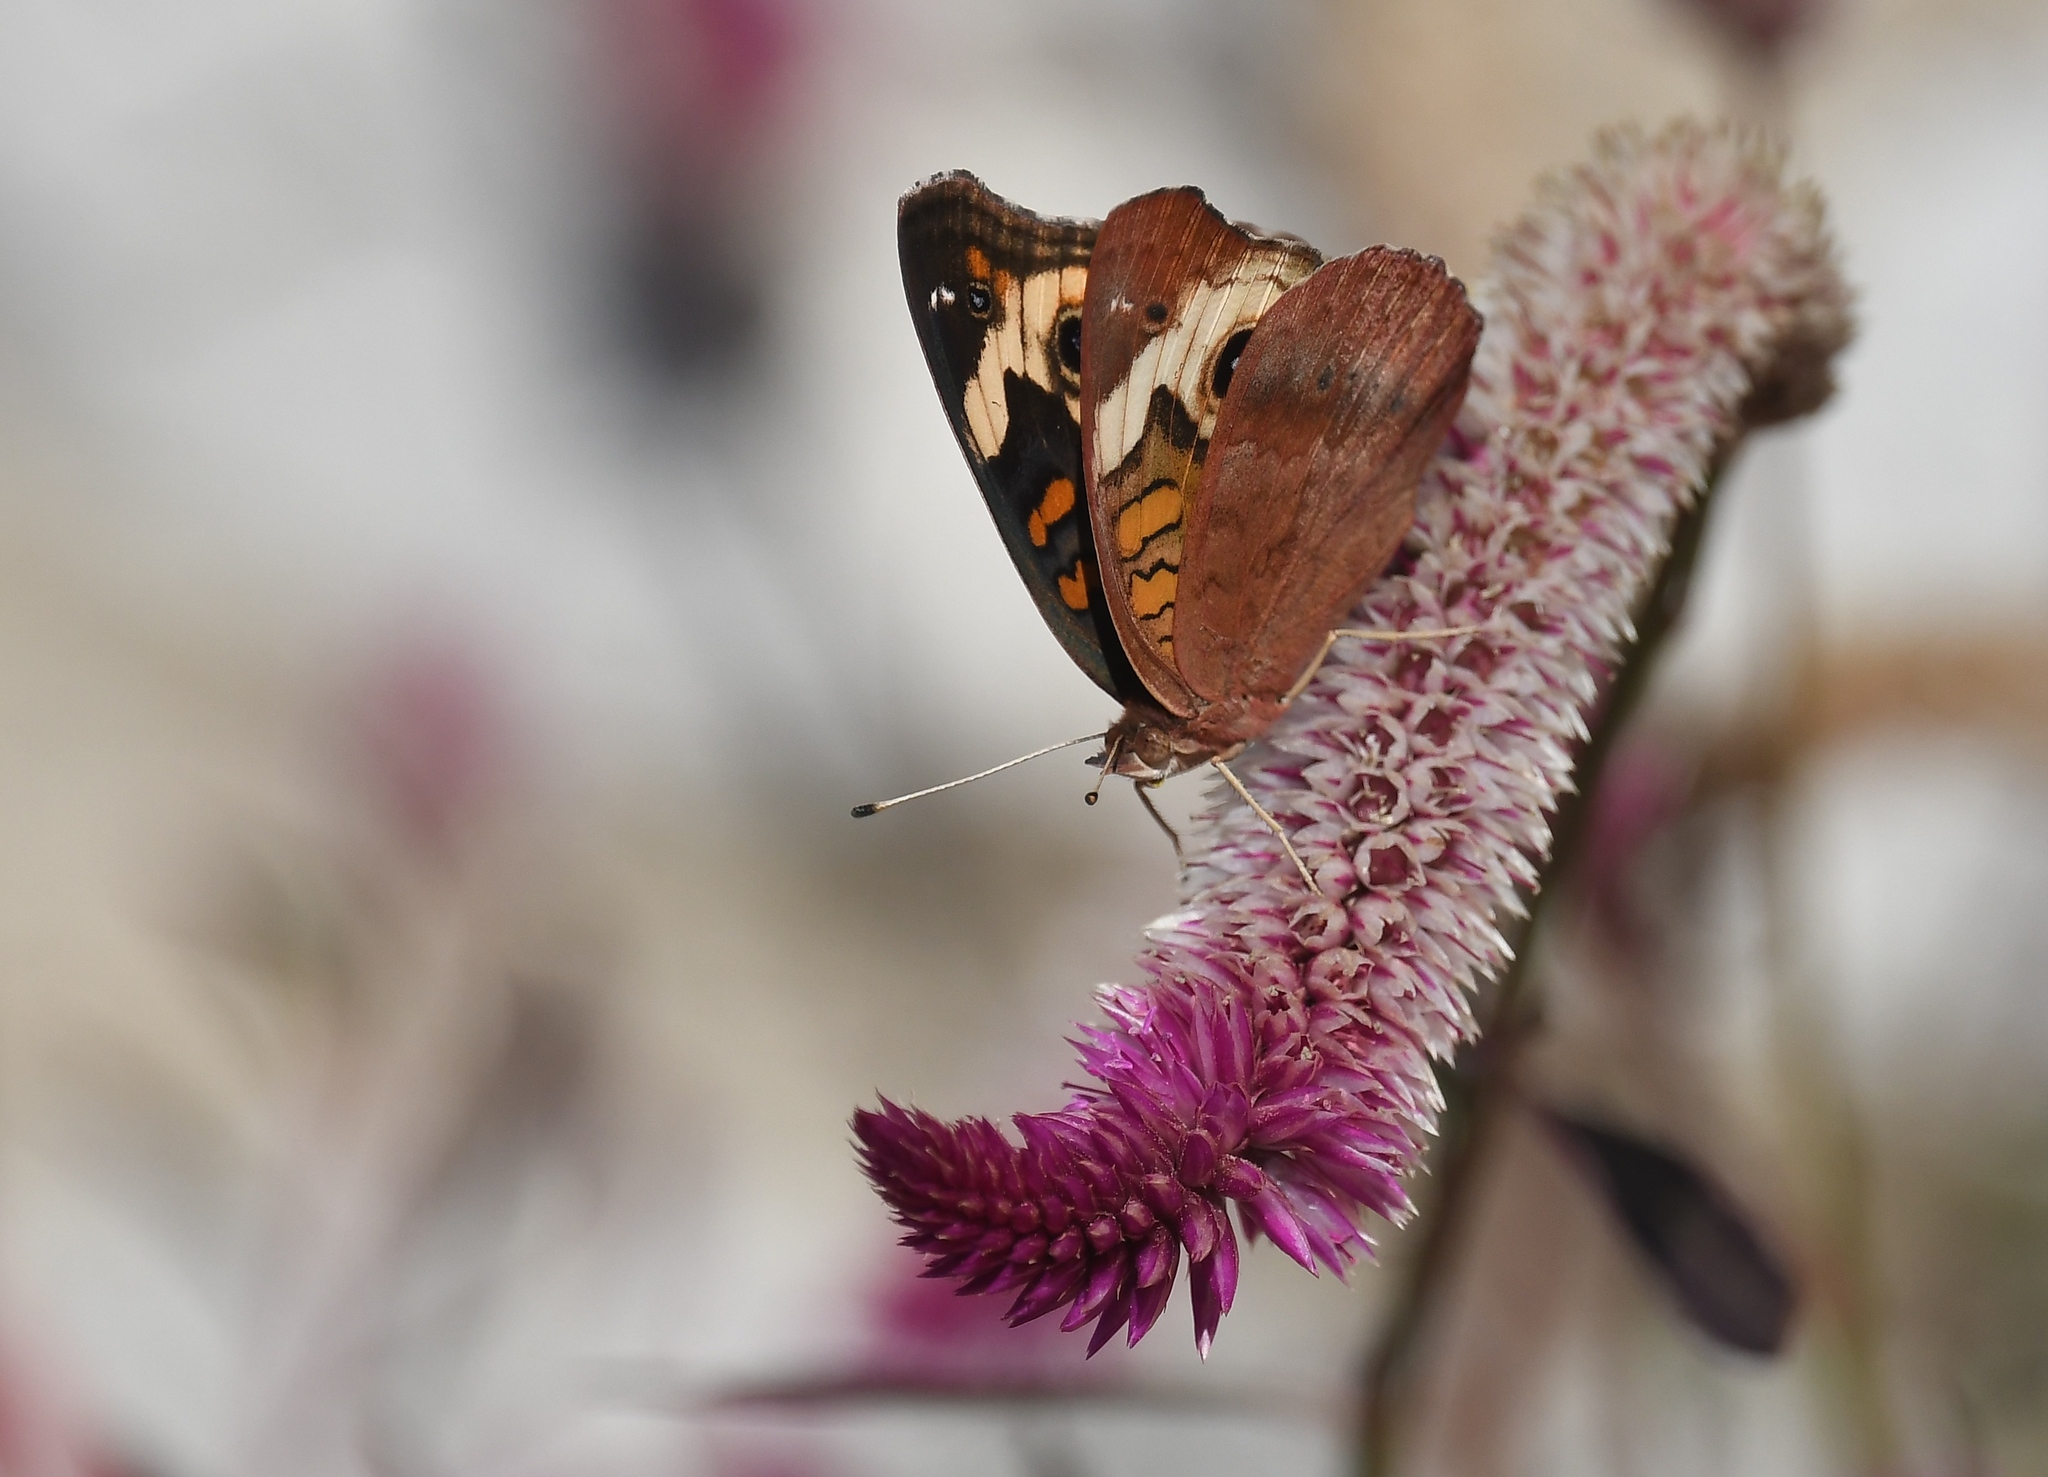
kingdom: Animalia
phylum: Arthropoda
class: Insecta
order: Lepidoptera
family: Nymphalidae
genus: Junonia
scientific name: Junonia coenia
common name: Common buckeye
